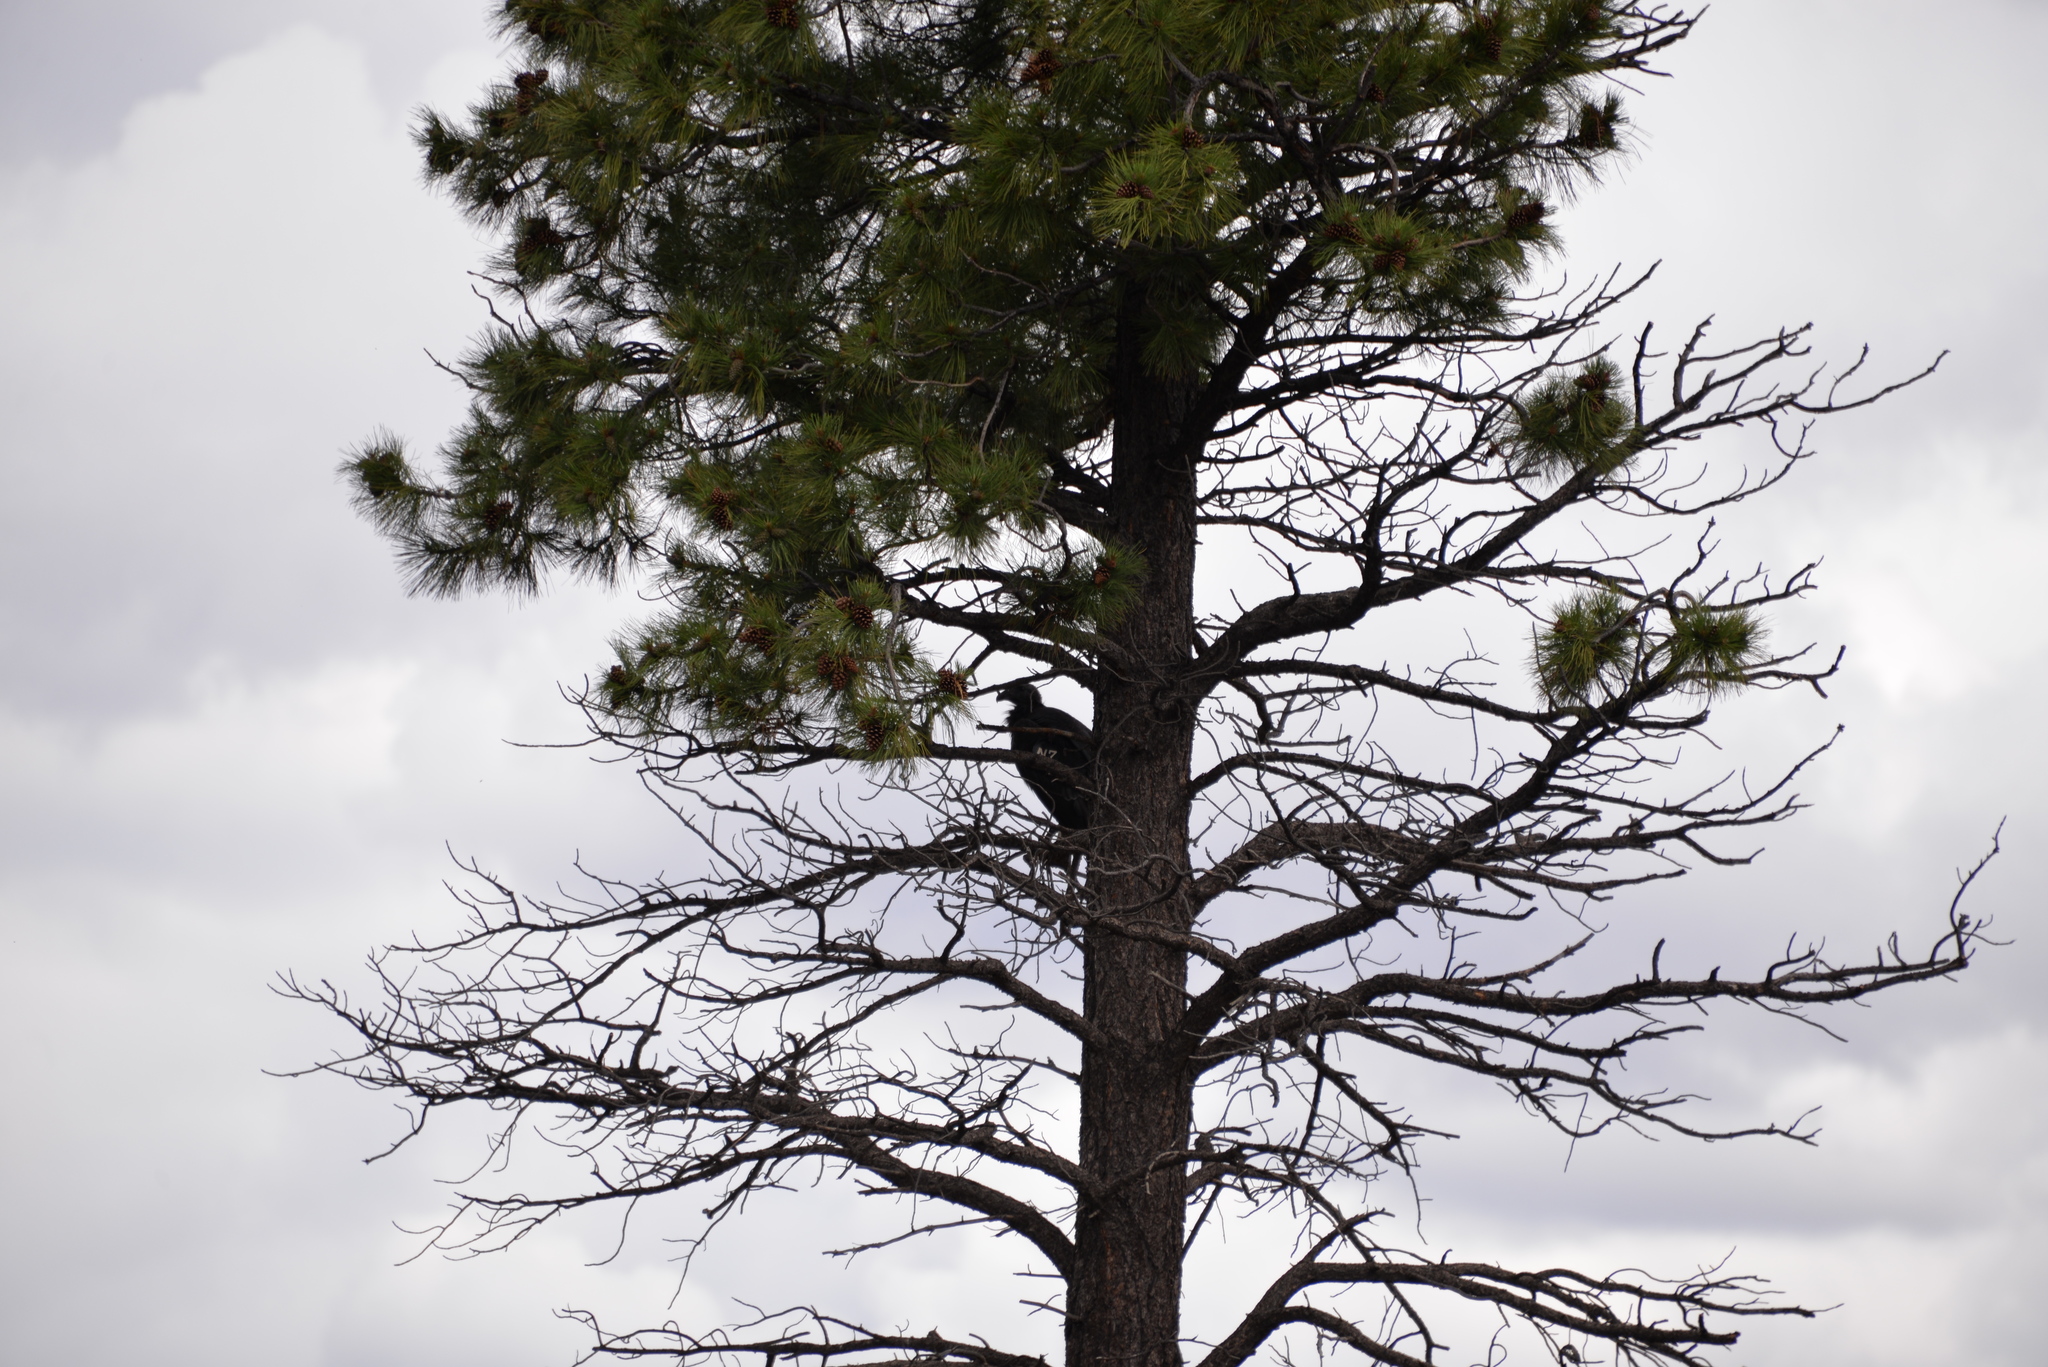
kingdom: Animalia
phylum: Chordata
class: Aves
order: Accipitriformes
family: Cathartidae
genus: Gymnogyps
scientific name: Gymnogyps californianus
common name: California condor
